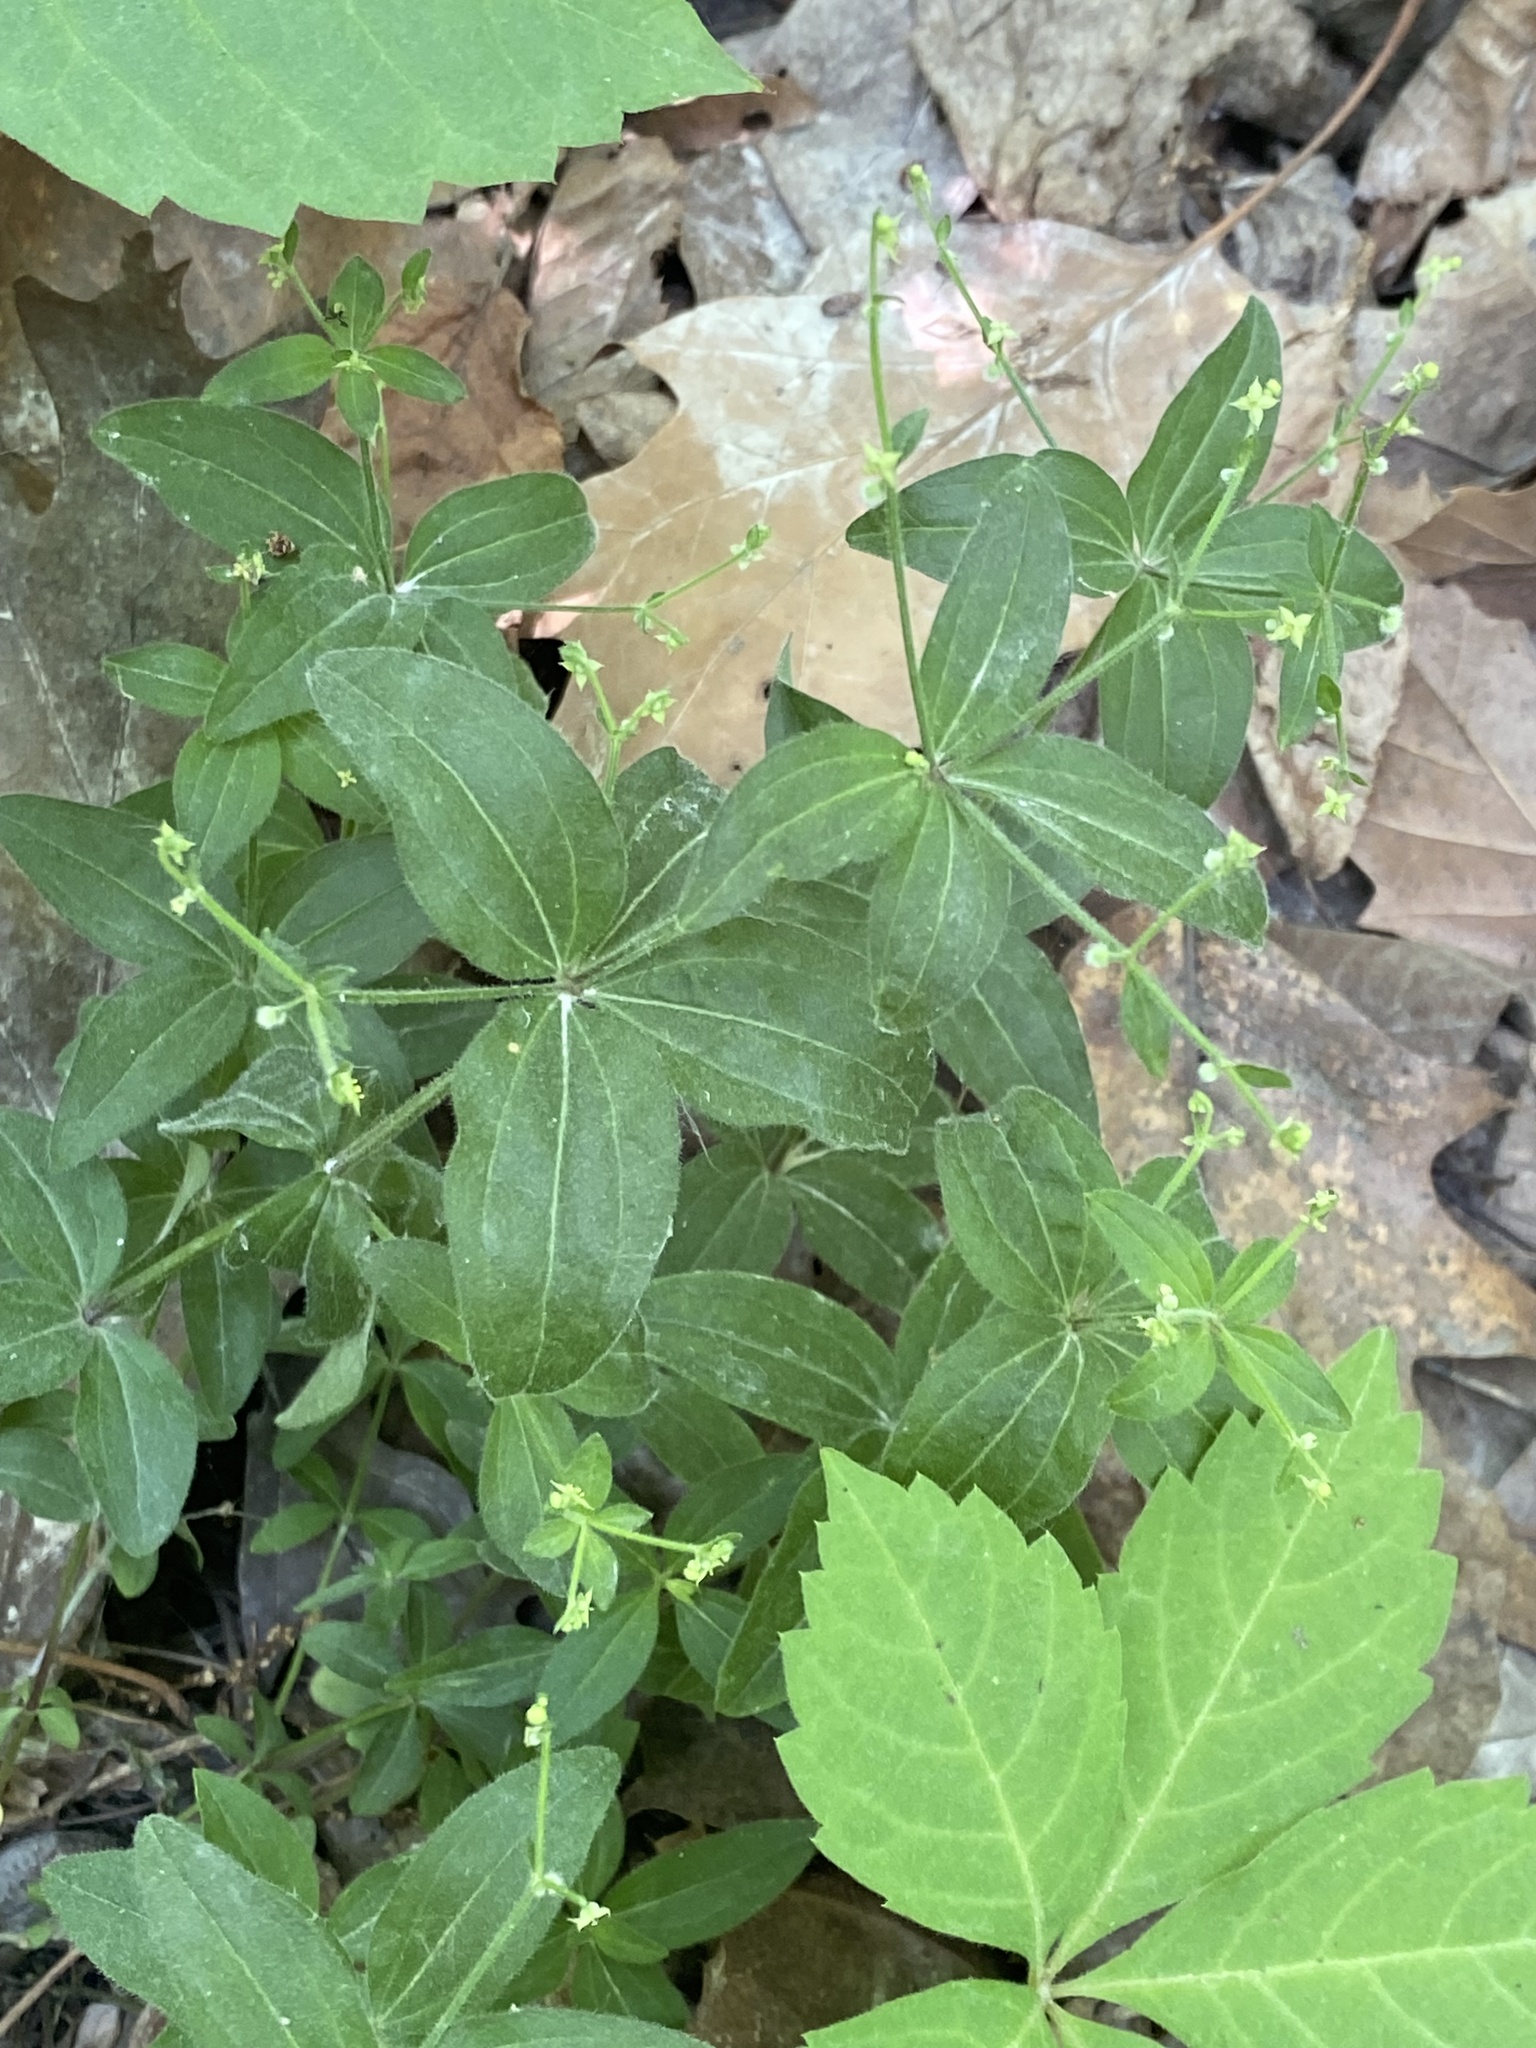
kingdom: Plantae
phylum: Tracheophyta
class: Magnoliopsida
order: Gentianales
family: Rubiaceae
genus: Galium
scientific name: Galium circaezans
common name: Forest bedstraw
